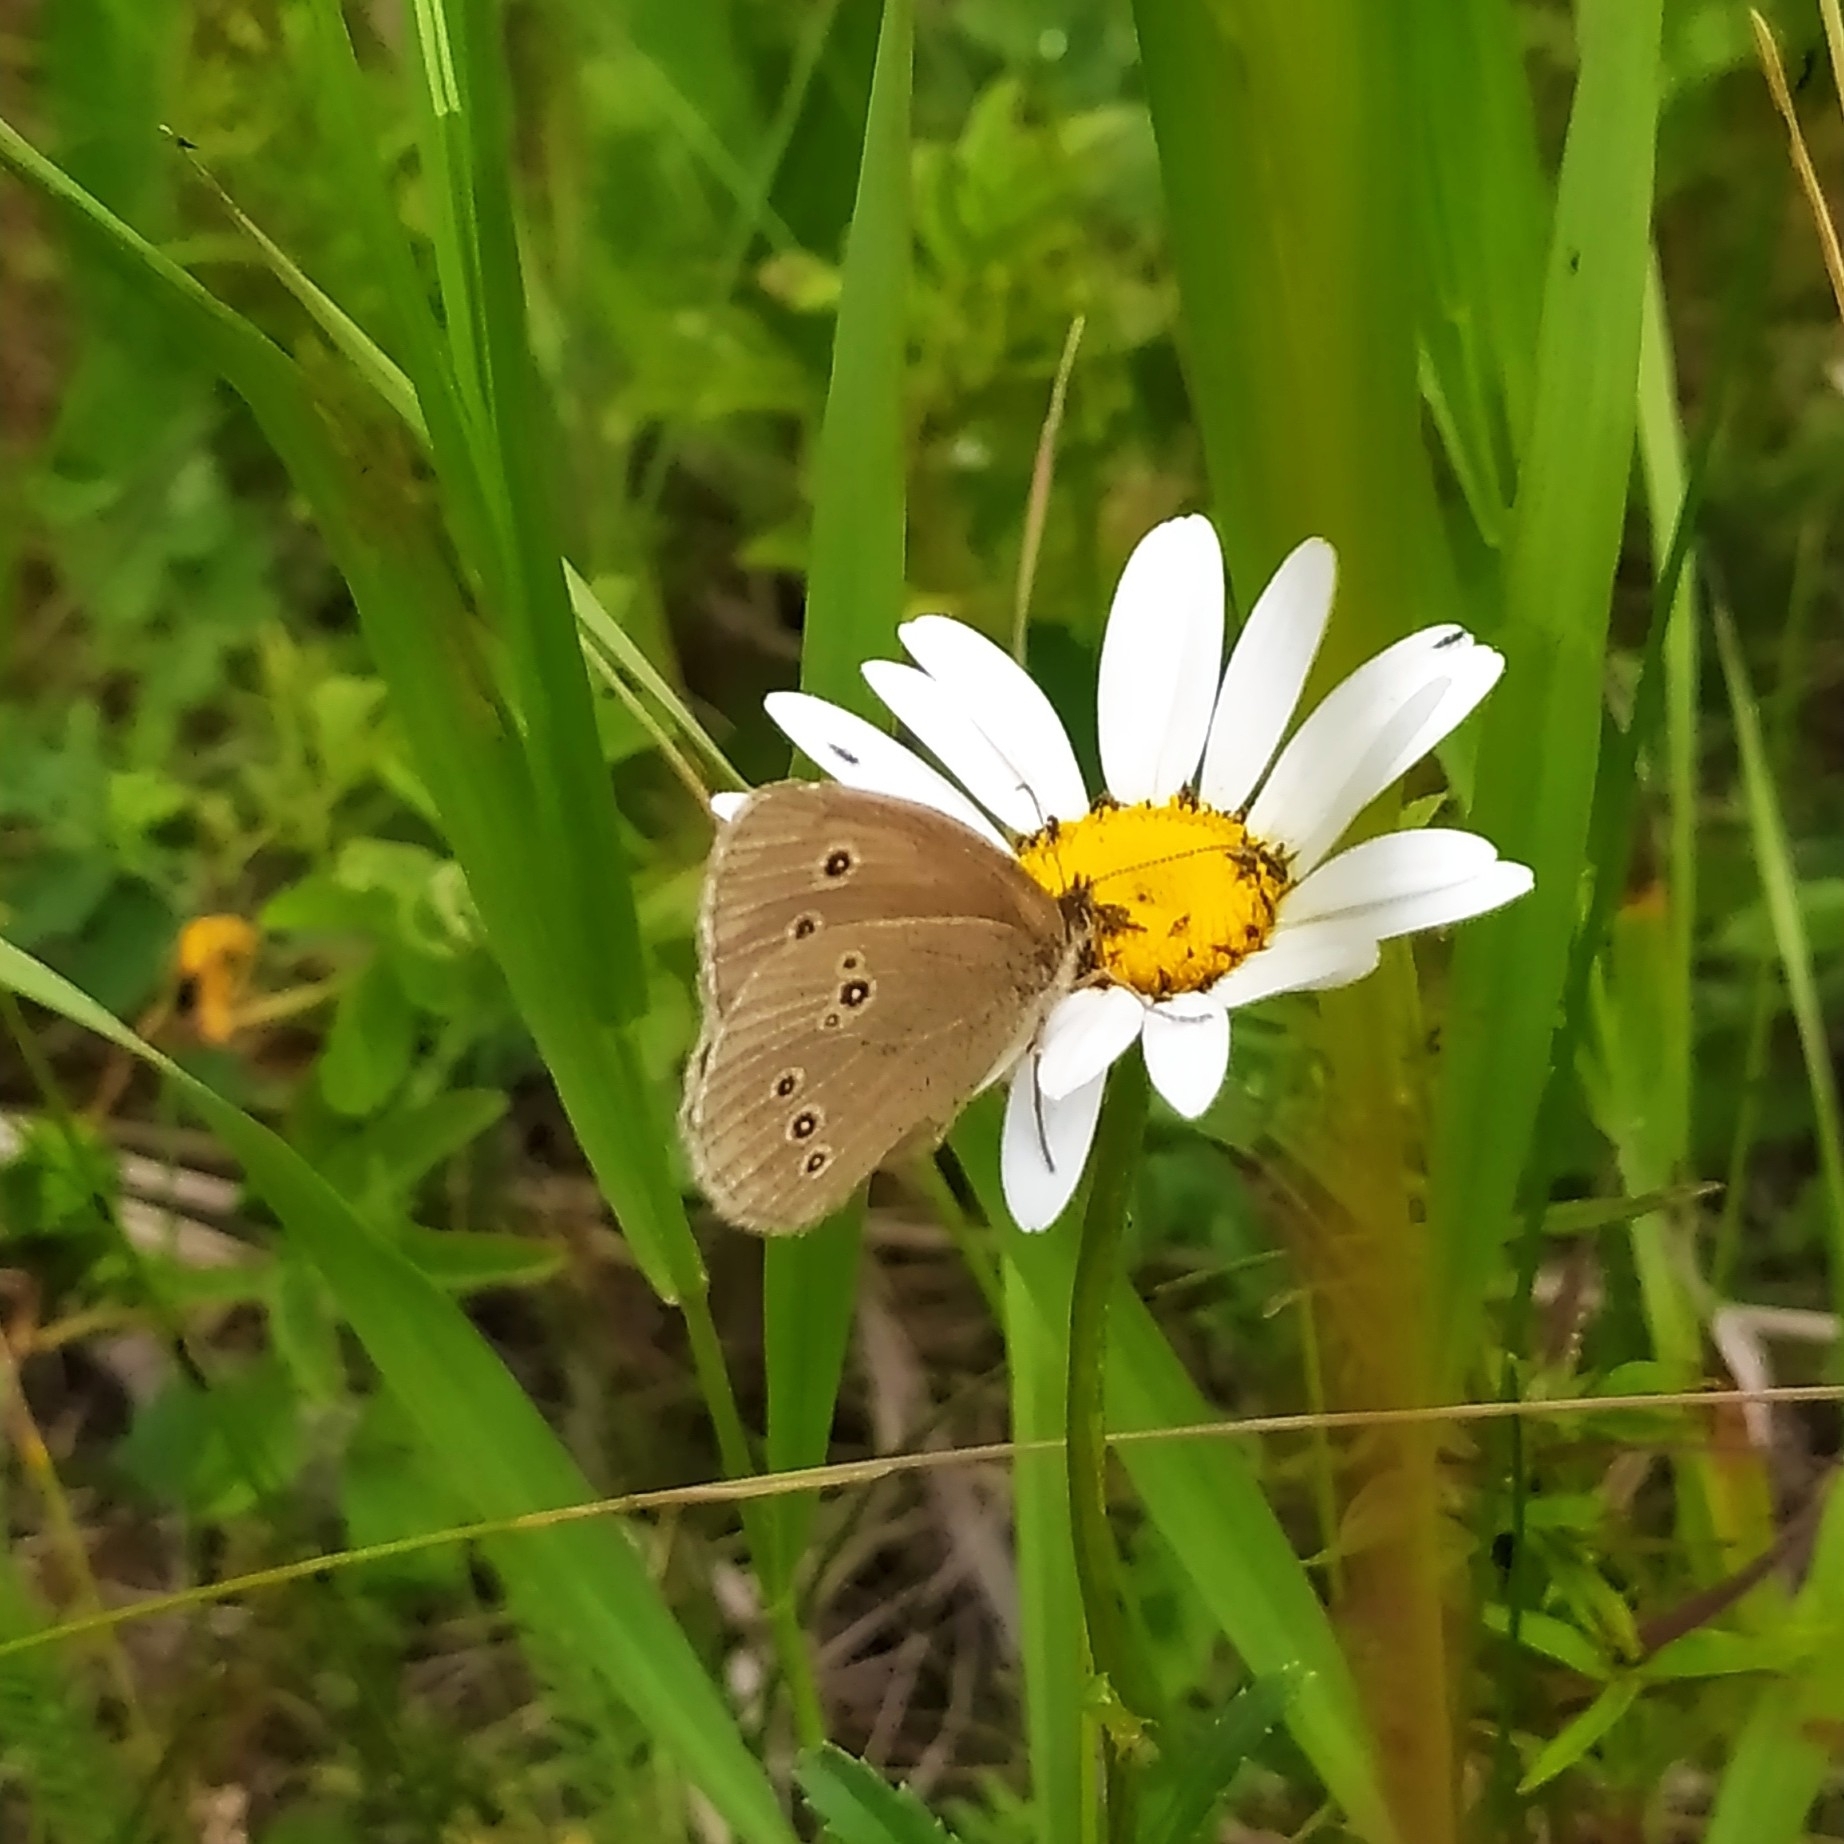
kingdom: Animalia
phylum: Arthropoda
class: Insecta
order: Lepidoptera
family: Nymphalidae
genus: Aphantopus
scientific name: Aphantopus hyperantus
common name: Ringlet
